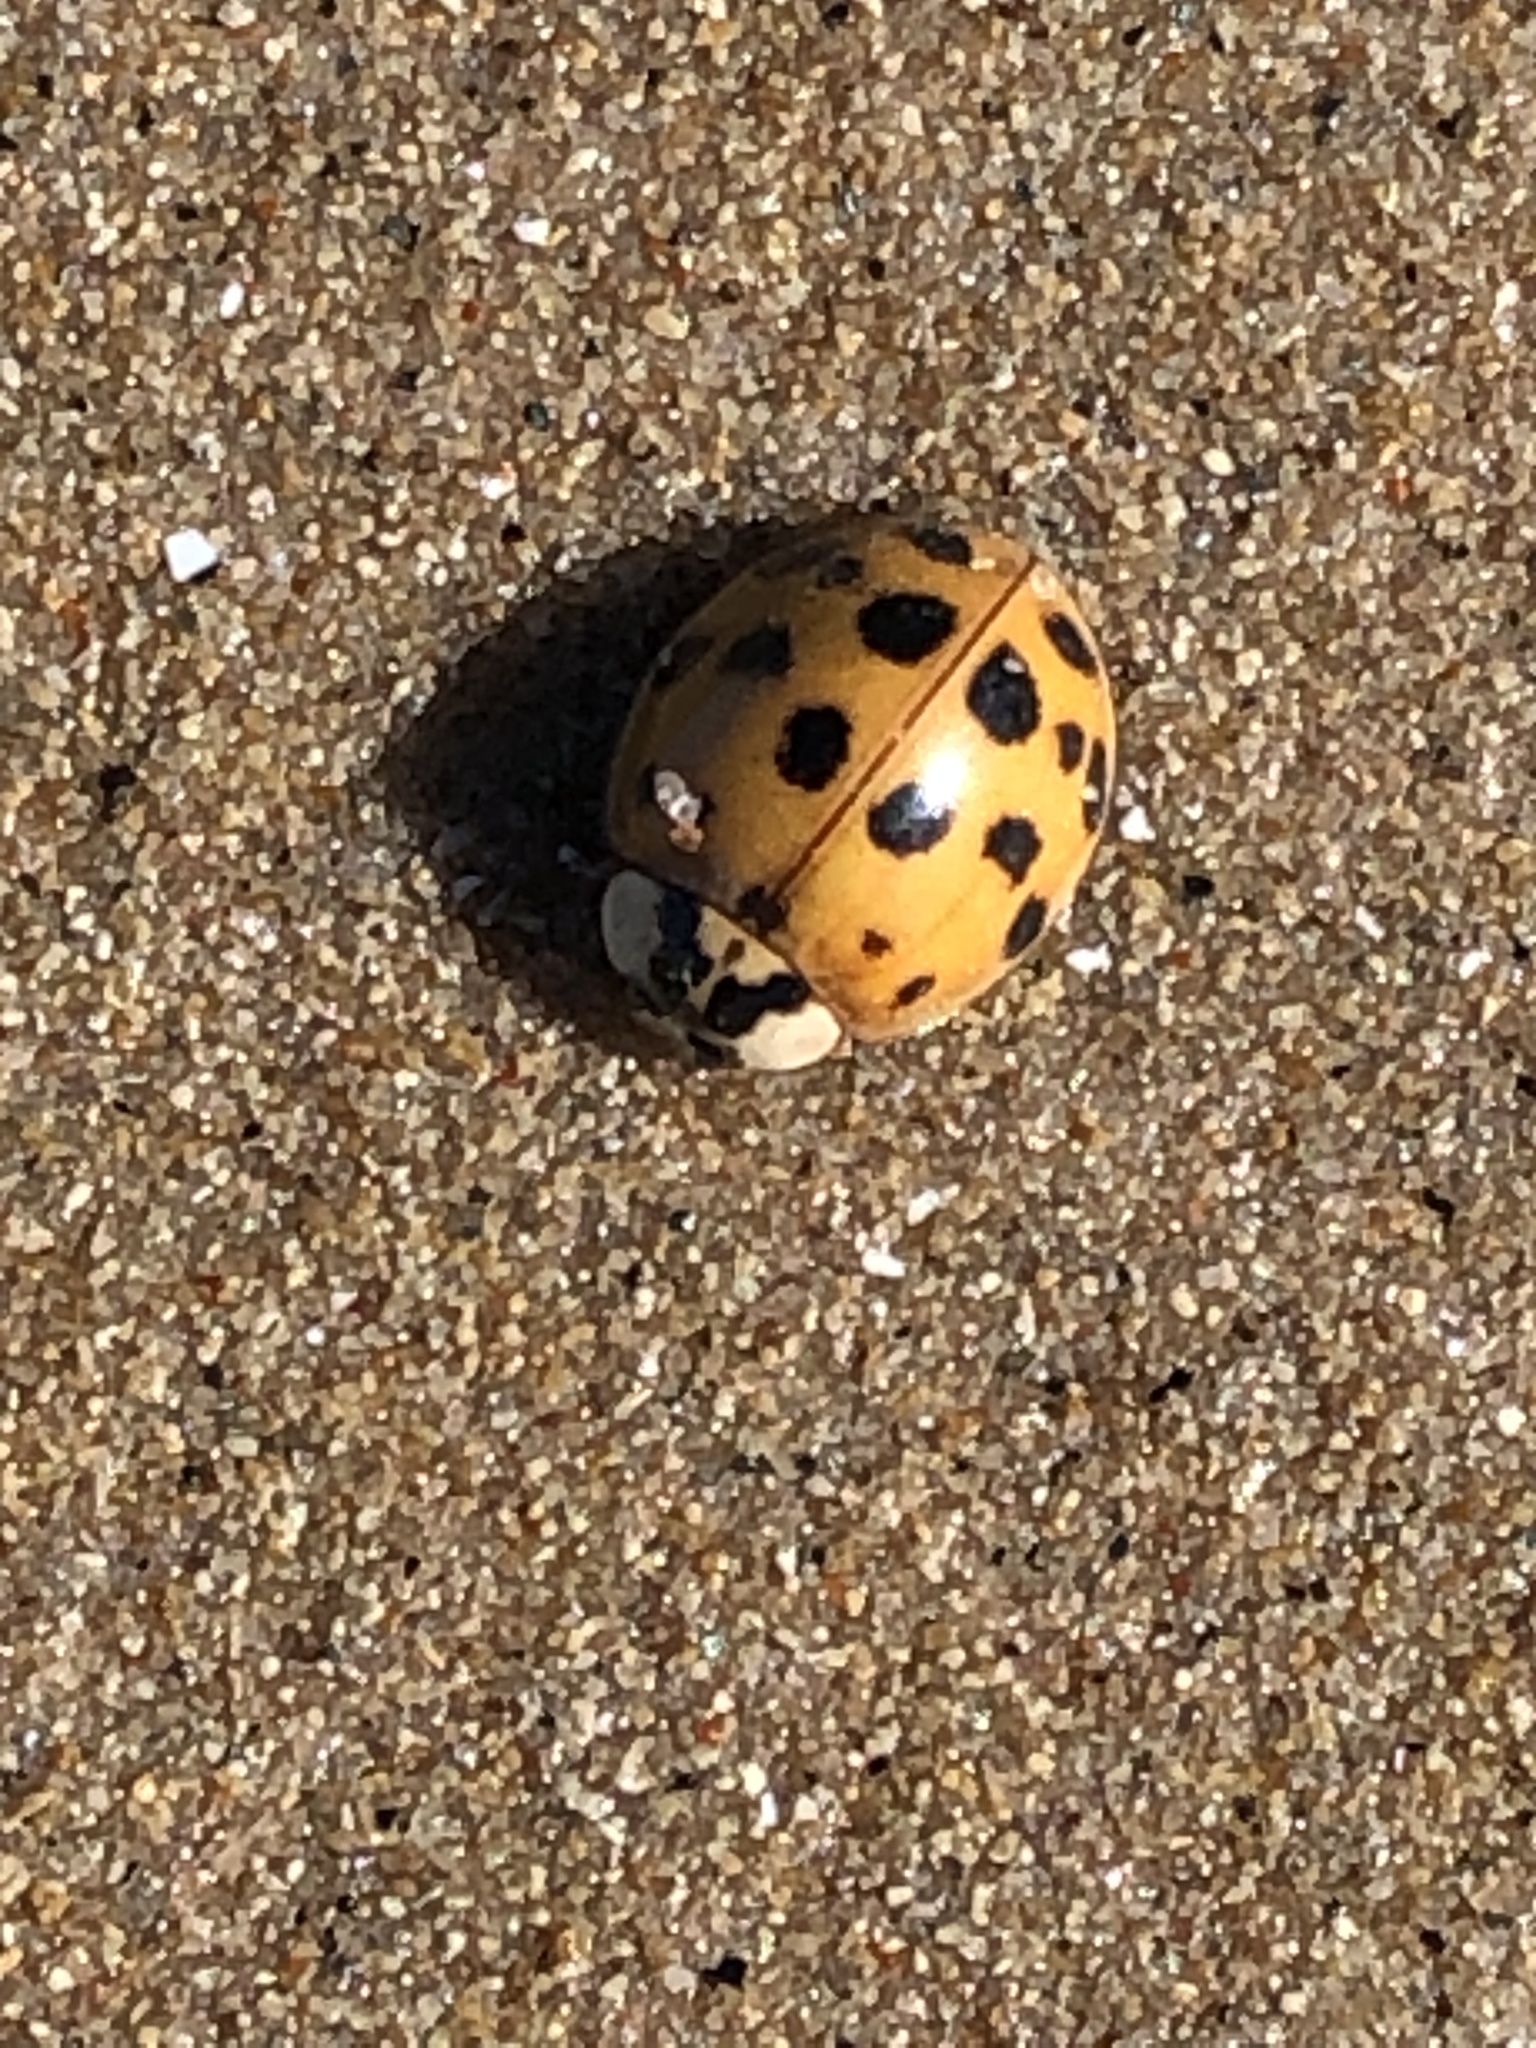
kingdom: Animalia
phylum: Arthropoda
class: Insecta
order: Coleoptera
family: Coccinellidae
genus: Harmonia
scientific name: Harmonia axyridis
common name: Harlequin ladybird
